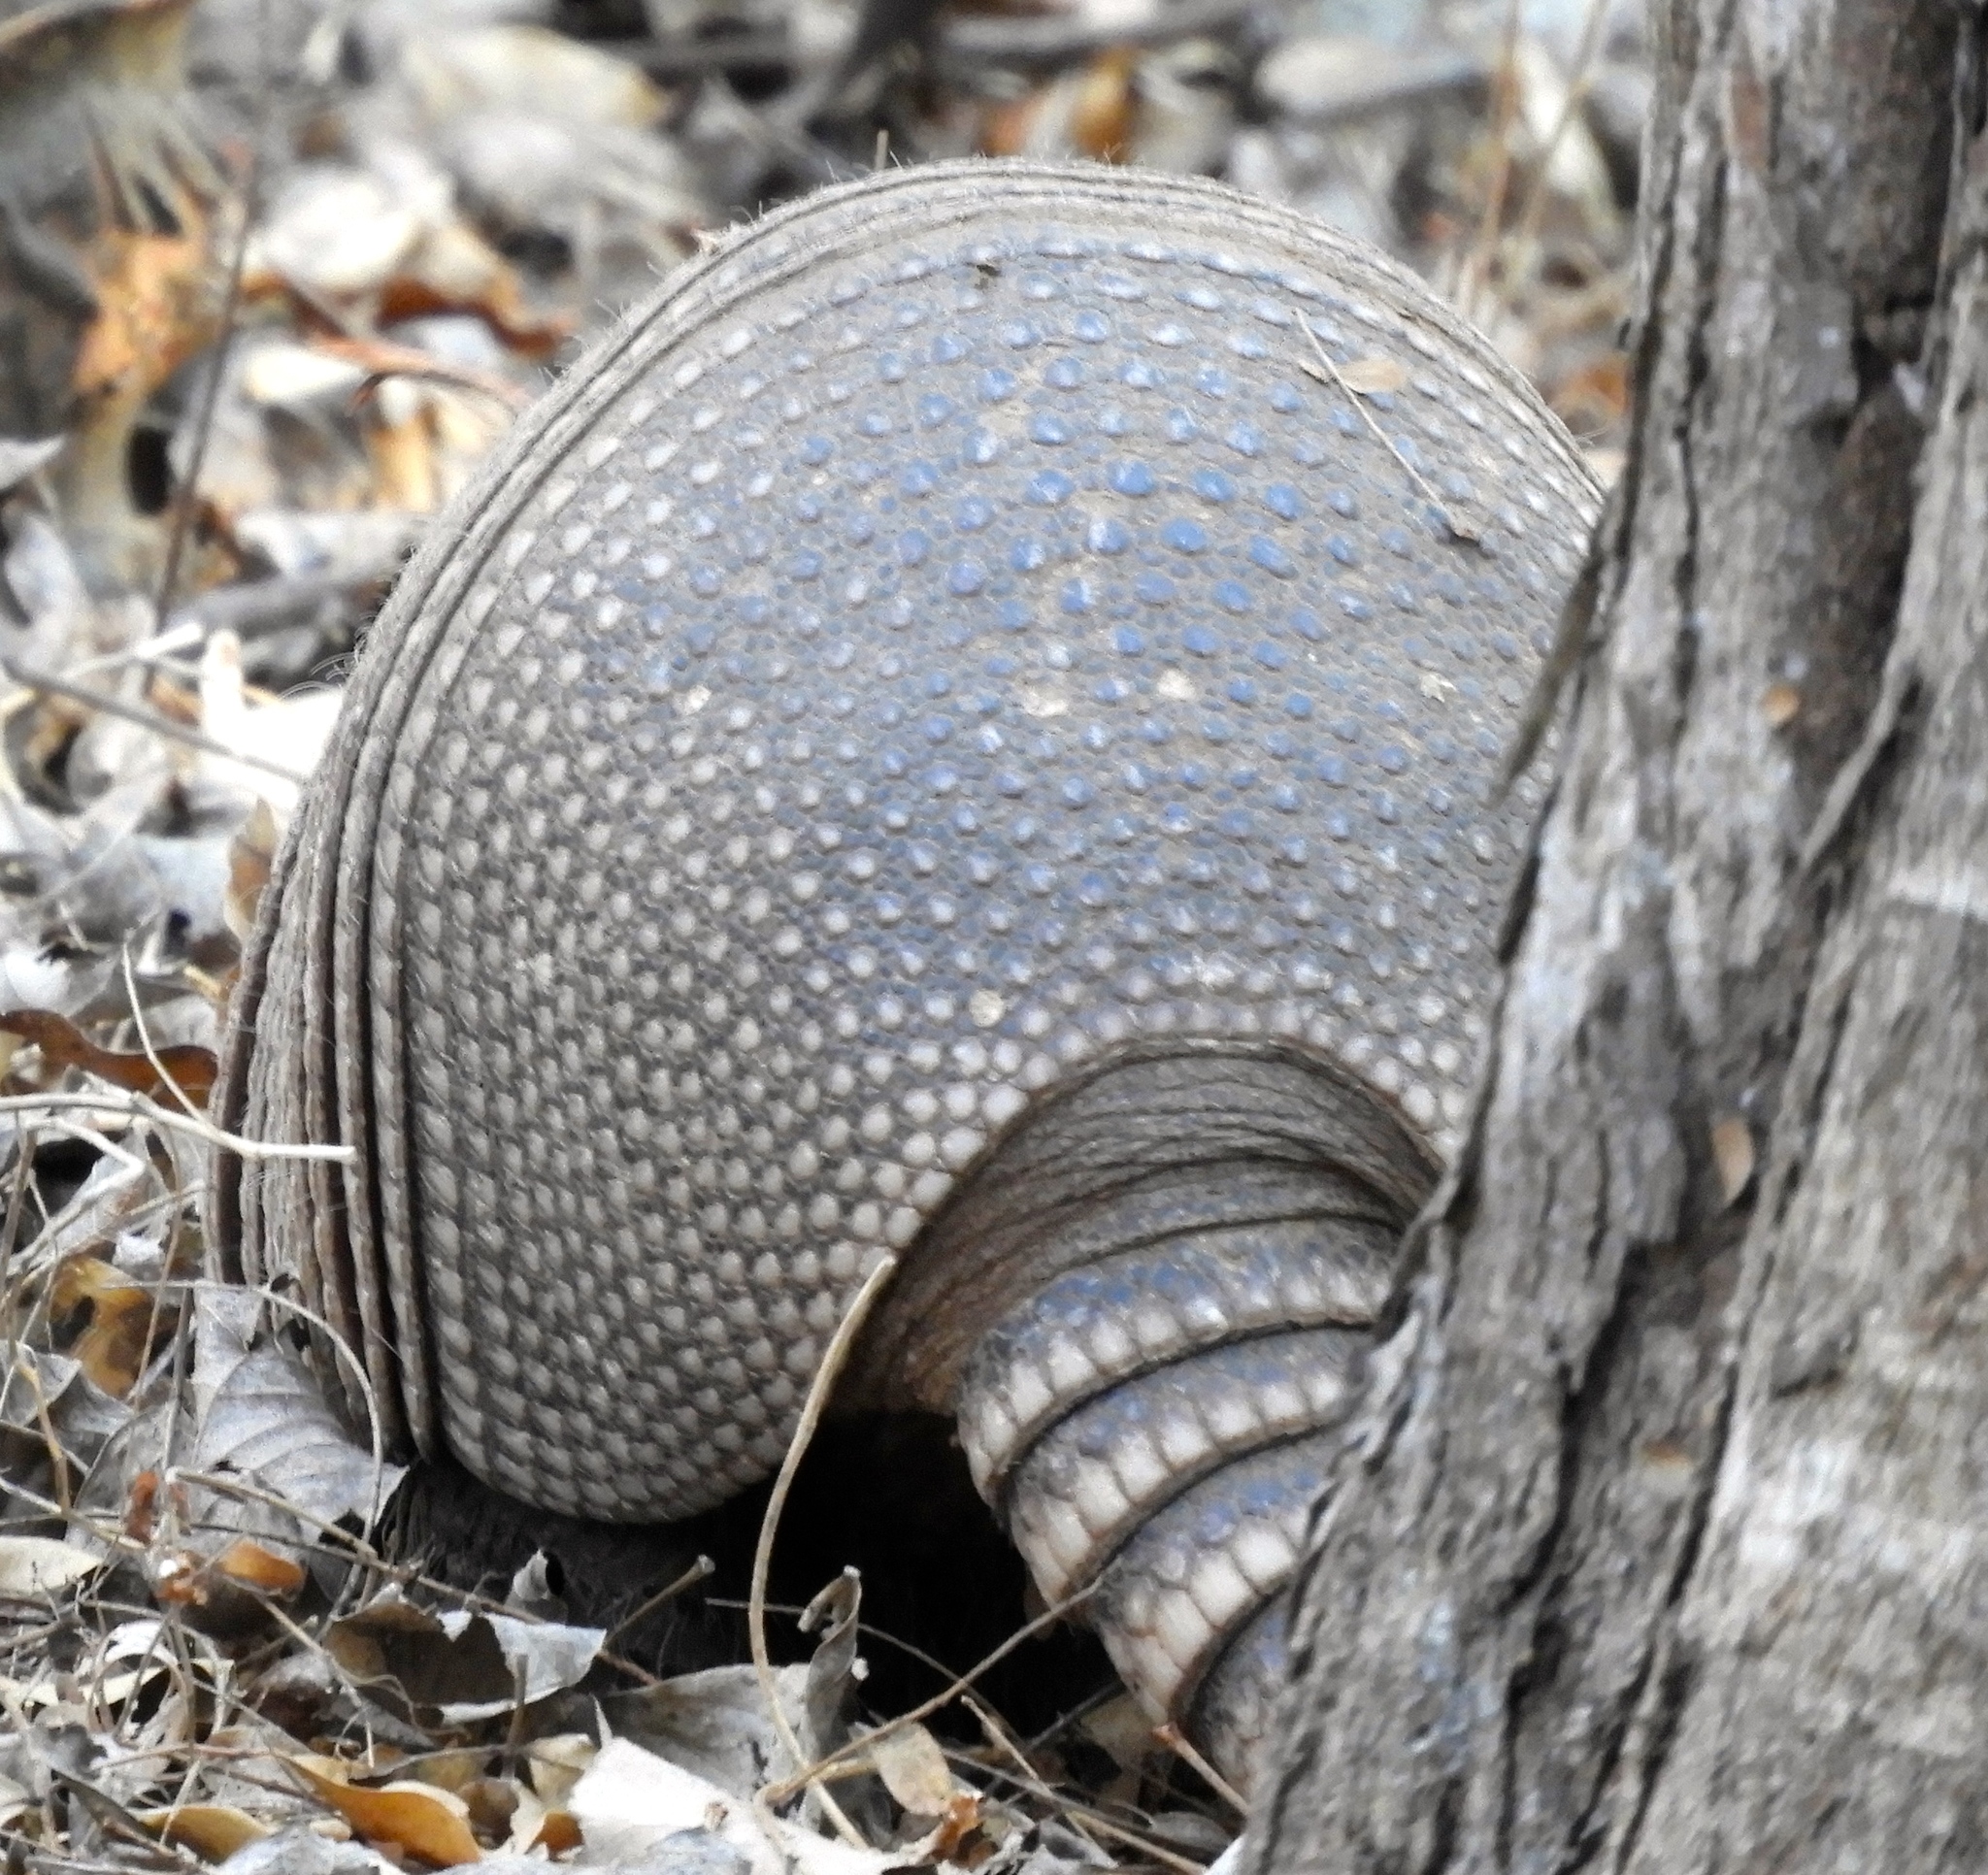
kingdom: Animalia
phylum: Chordata
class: Mammalia
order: Cingulata
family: Dasypodidae
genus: Dasypus
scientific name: Dasypus novemcinctus
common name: Nine-banded armadillo
